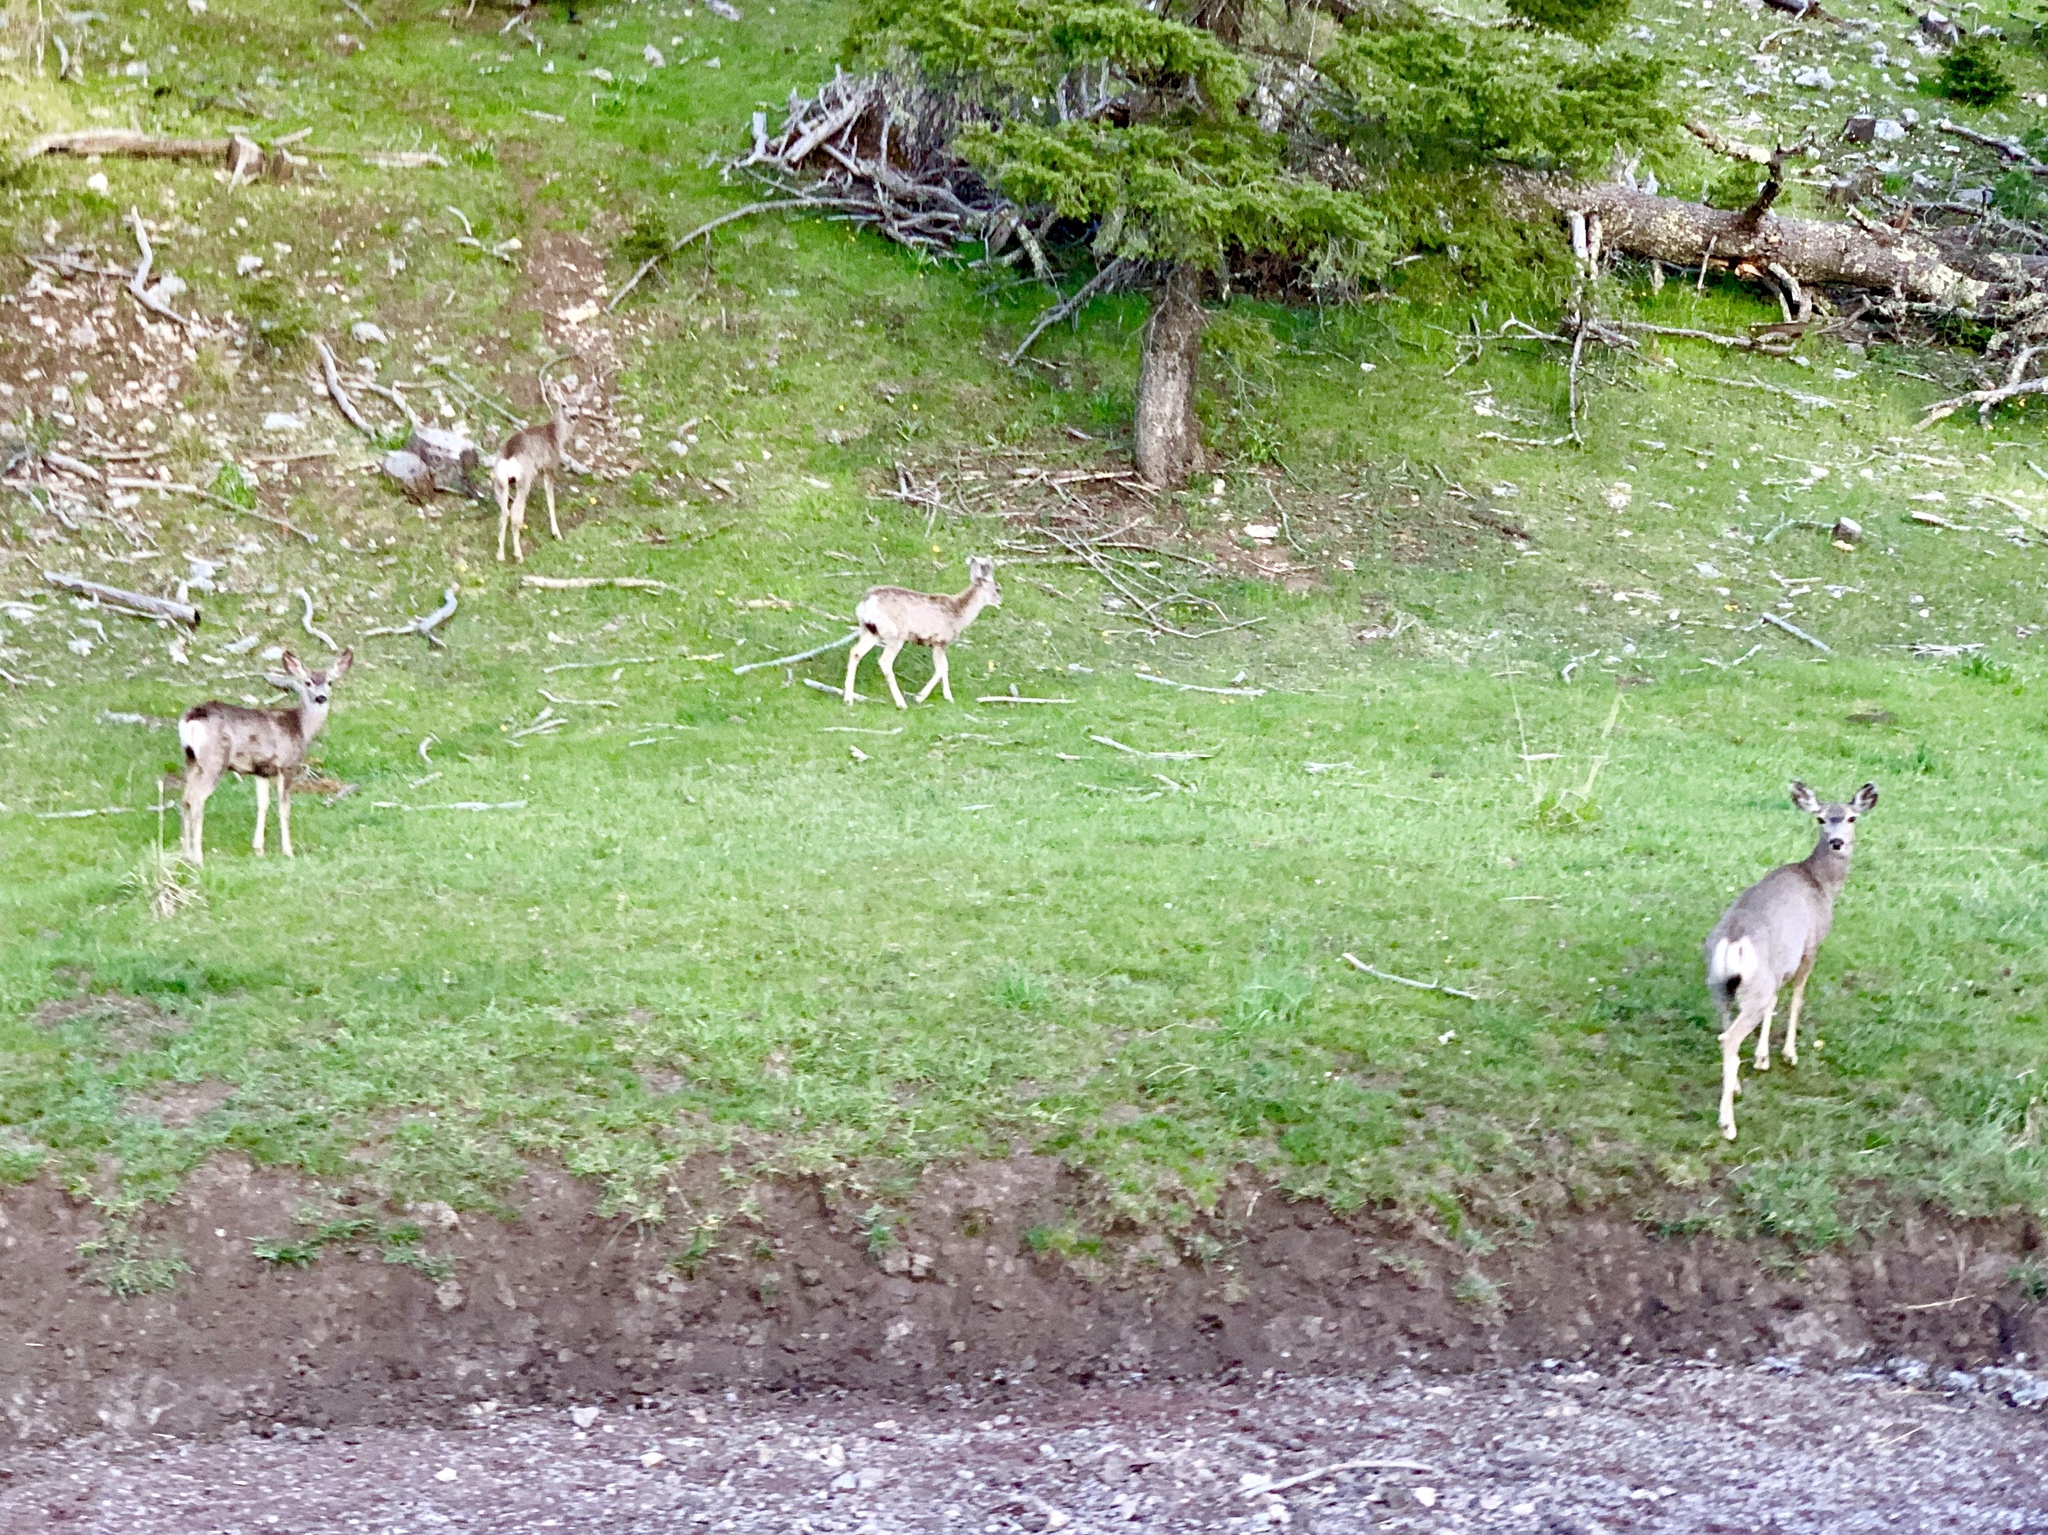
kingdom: Animalia
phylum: Chordata
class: Mammalia
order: Artiodactyla
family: Cervidae
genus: Odocoileus
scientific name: Odocoileus hemionus
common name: Mule deer
